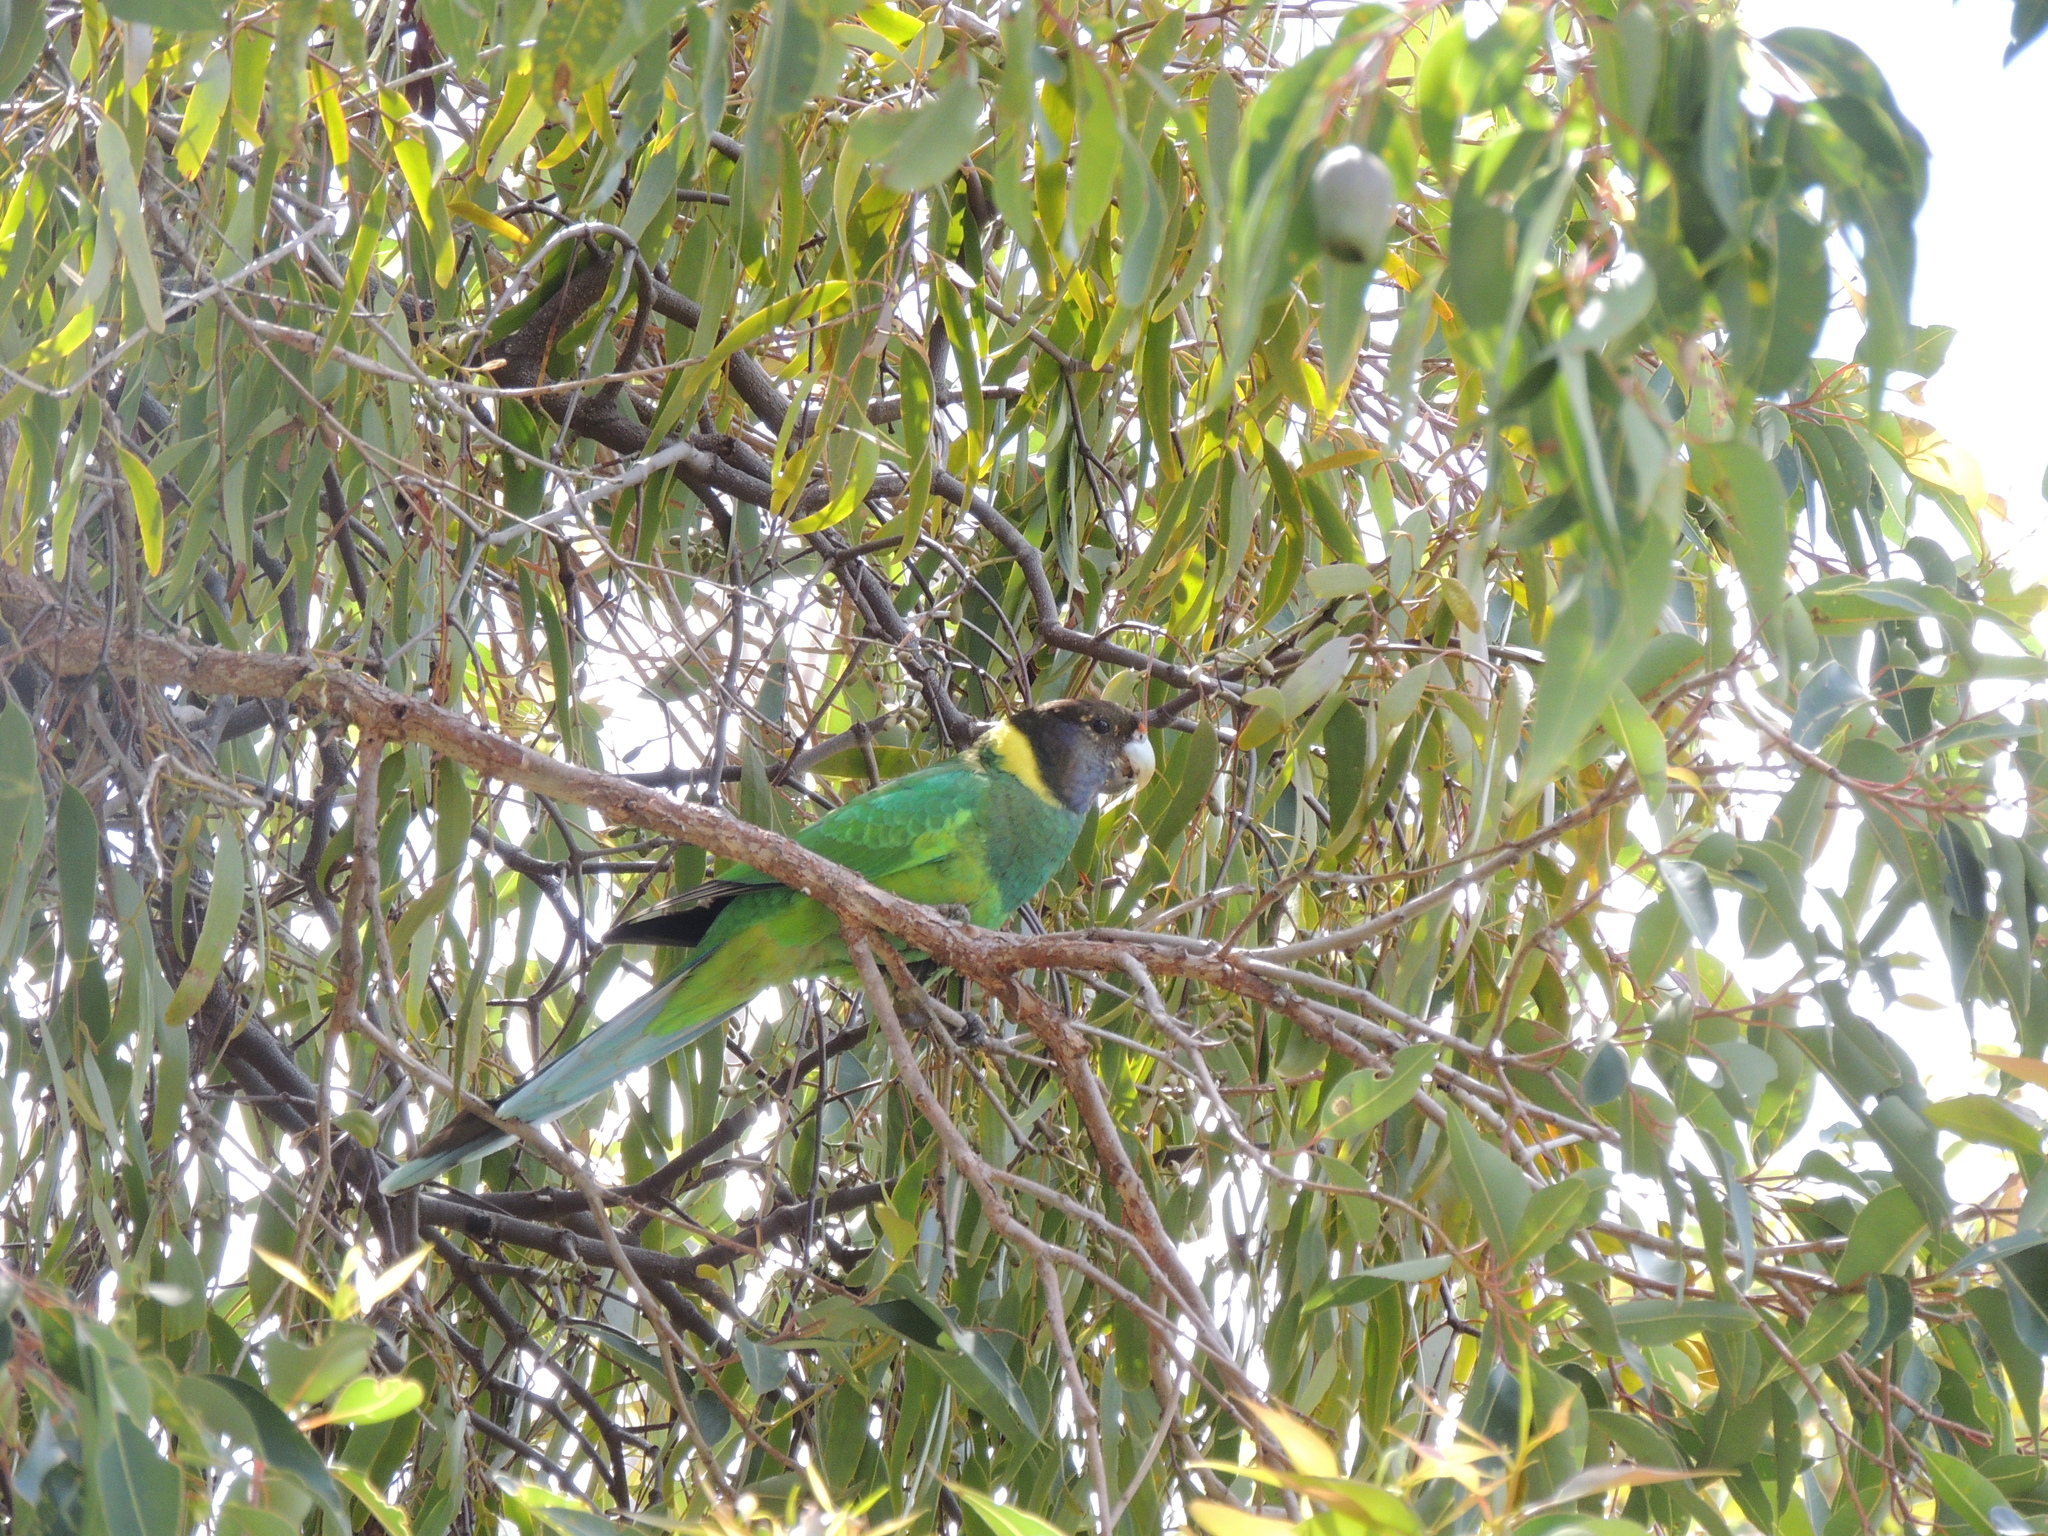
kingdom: Animalia
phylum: Chordata
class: Aves
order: Psittaciformes
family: Psittacidae
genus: Barnardius
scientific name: Barnardius zonarius
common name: Australian ringneck
